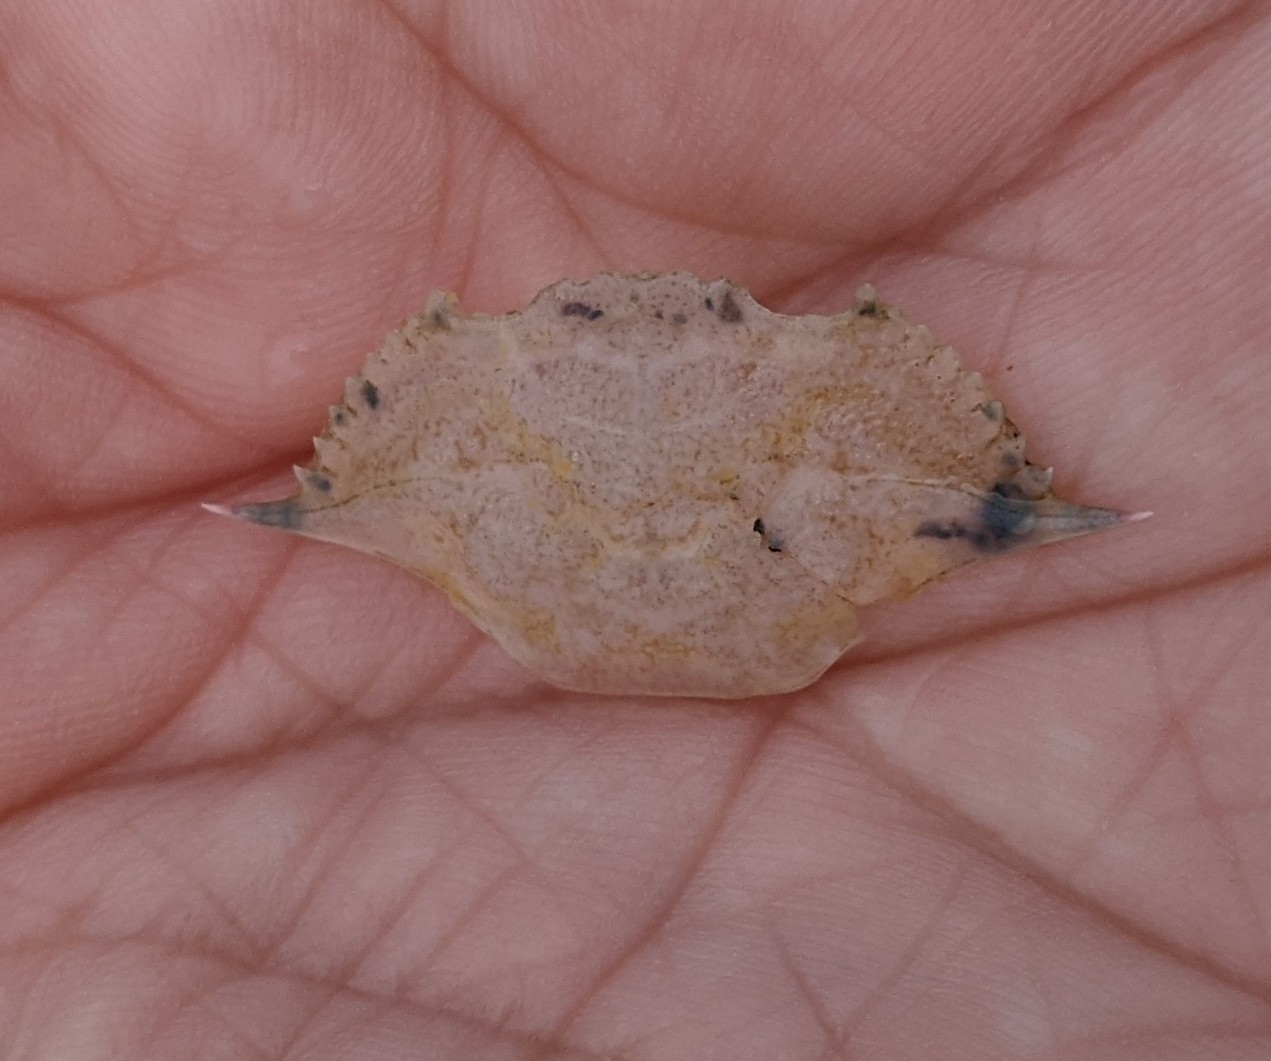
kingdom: Animalia
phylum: Arthropoda
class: Malacostraca
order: Decapoda
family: Portunidae
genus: Callinectes
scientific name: Callinectes sapidus
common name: Blue crab
